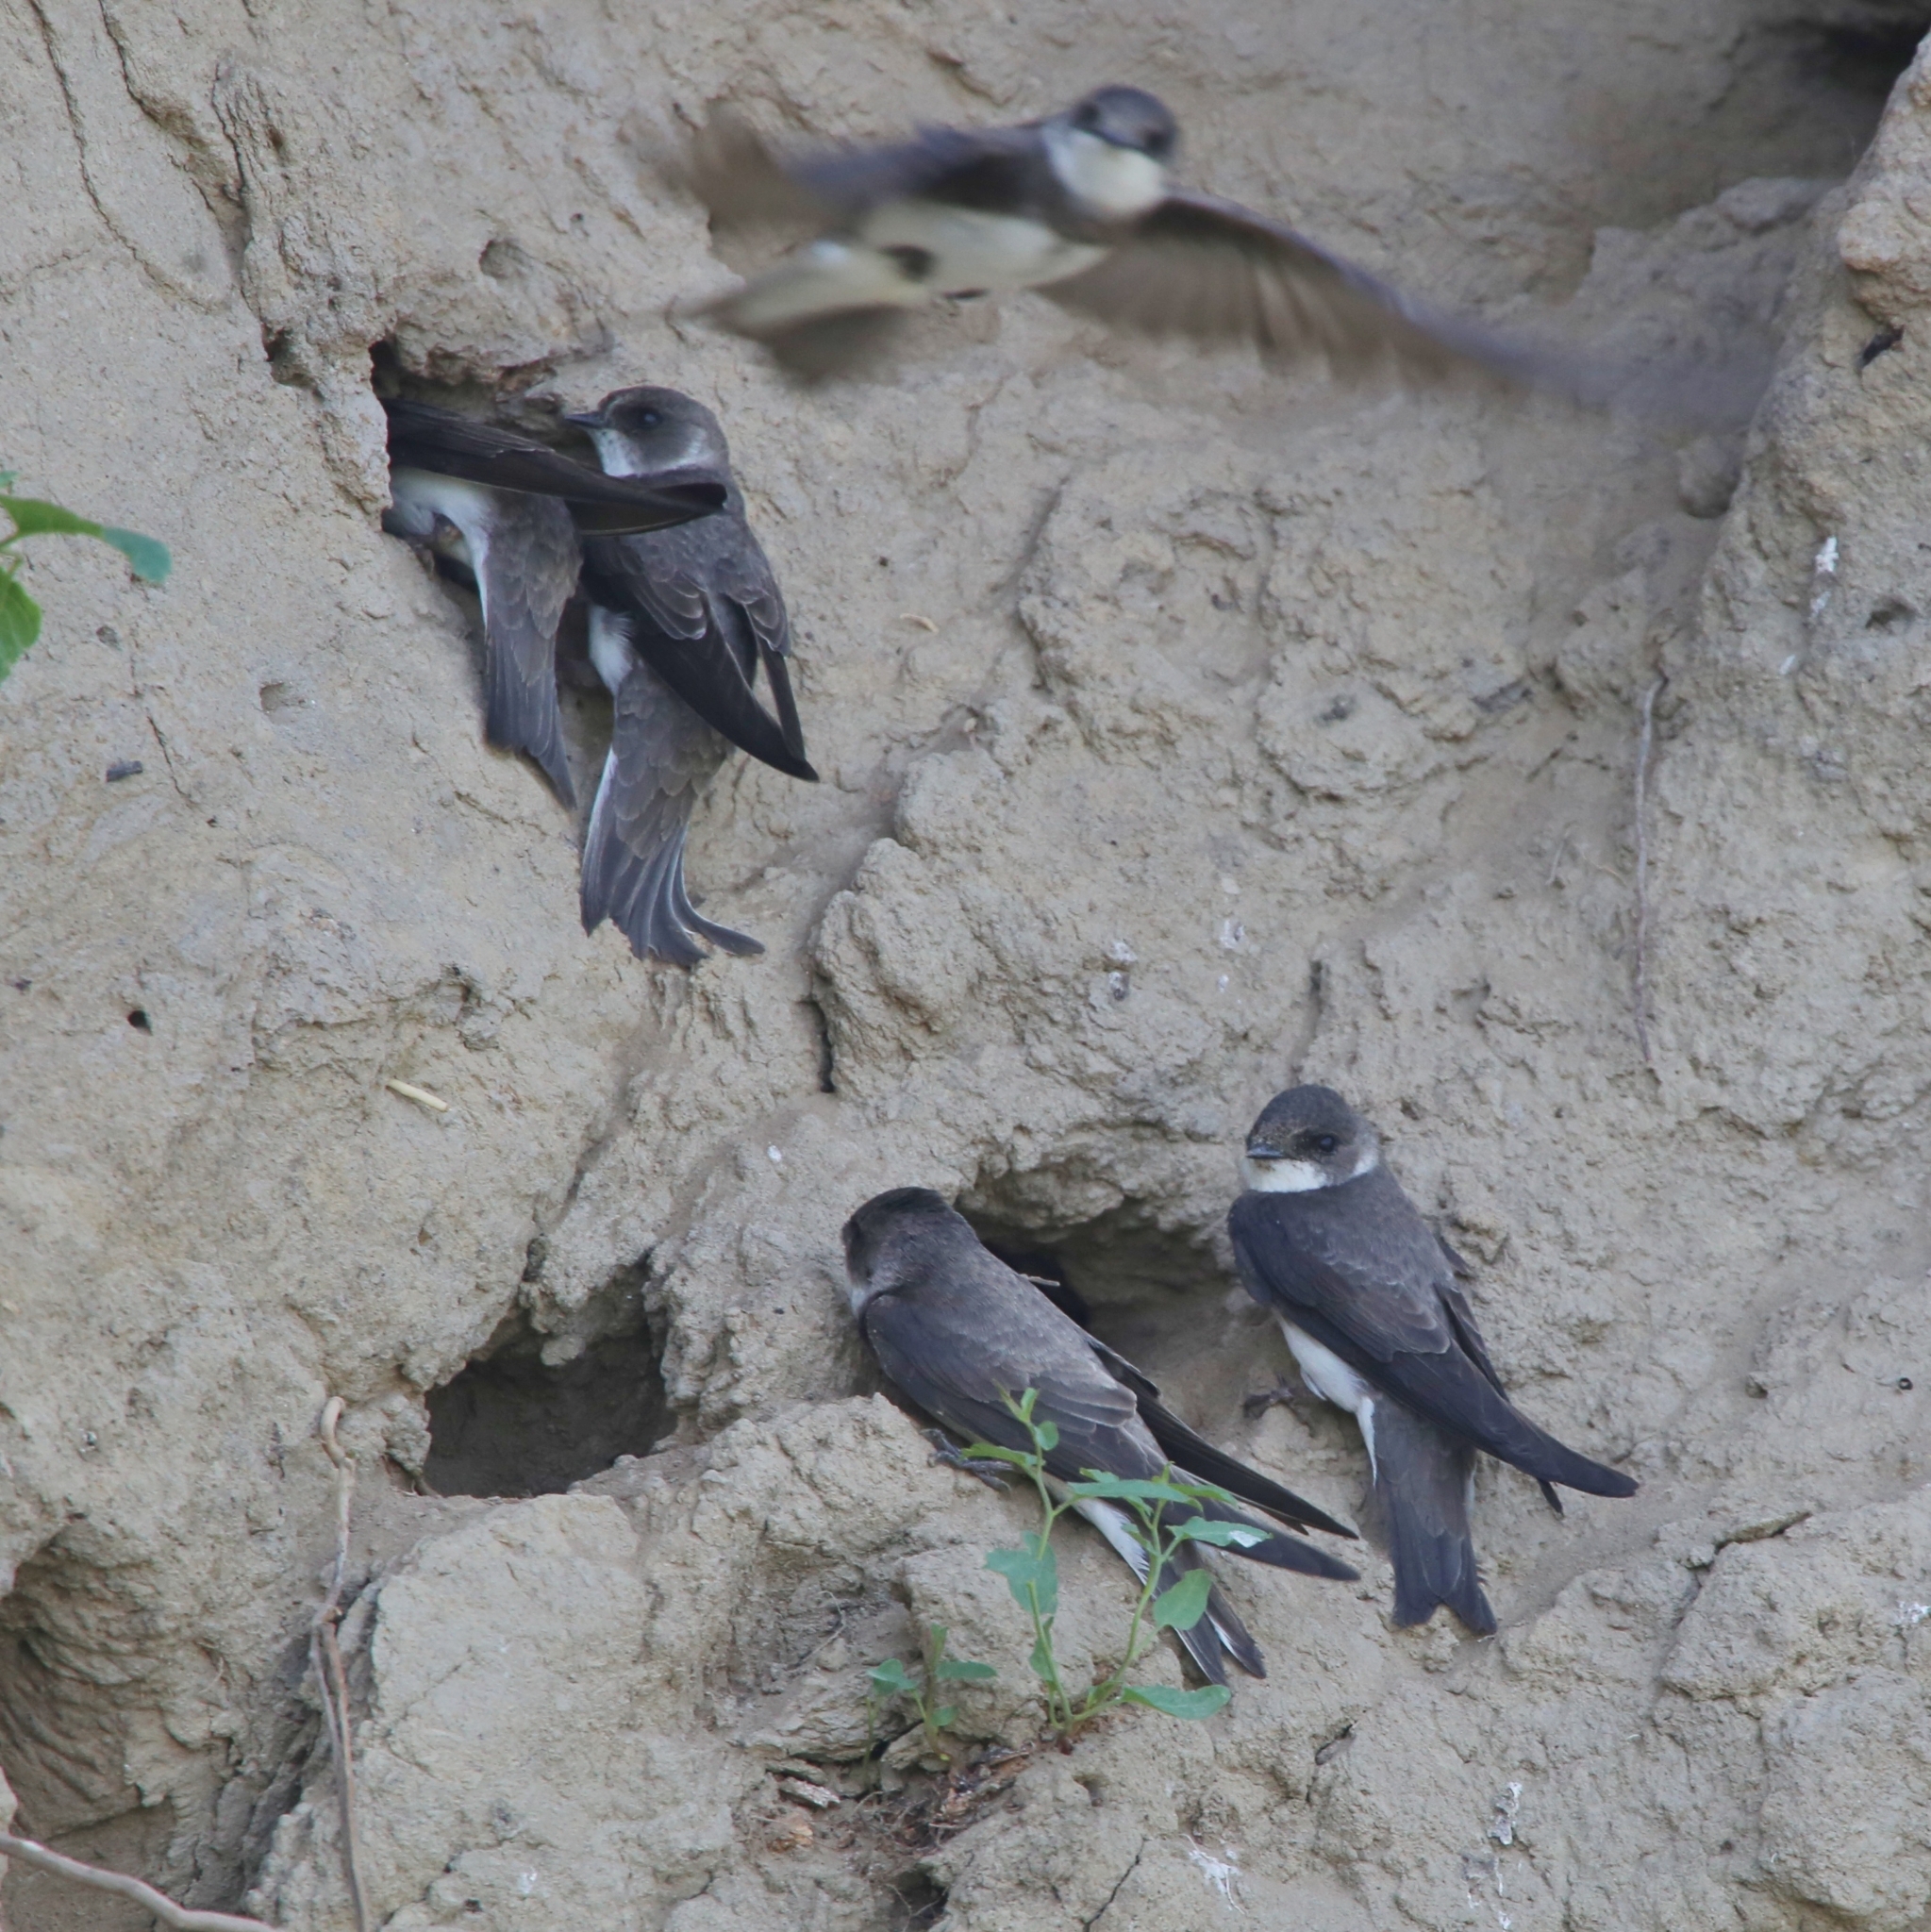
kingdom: Animalia
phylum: Chordata
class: Aves
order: Passeriformes
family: Hirundinidae
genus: Riparia
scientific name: Riparia riparia
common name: Sand martin
